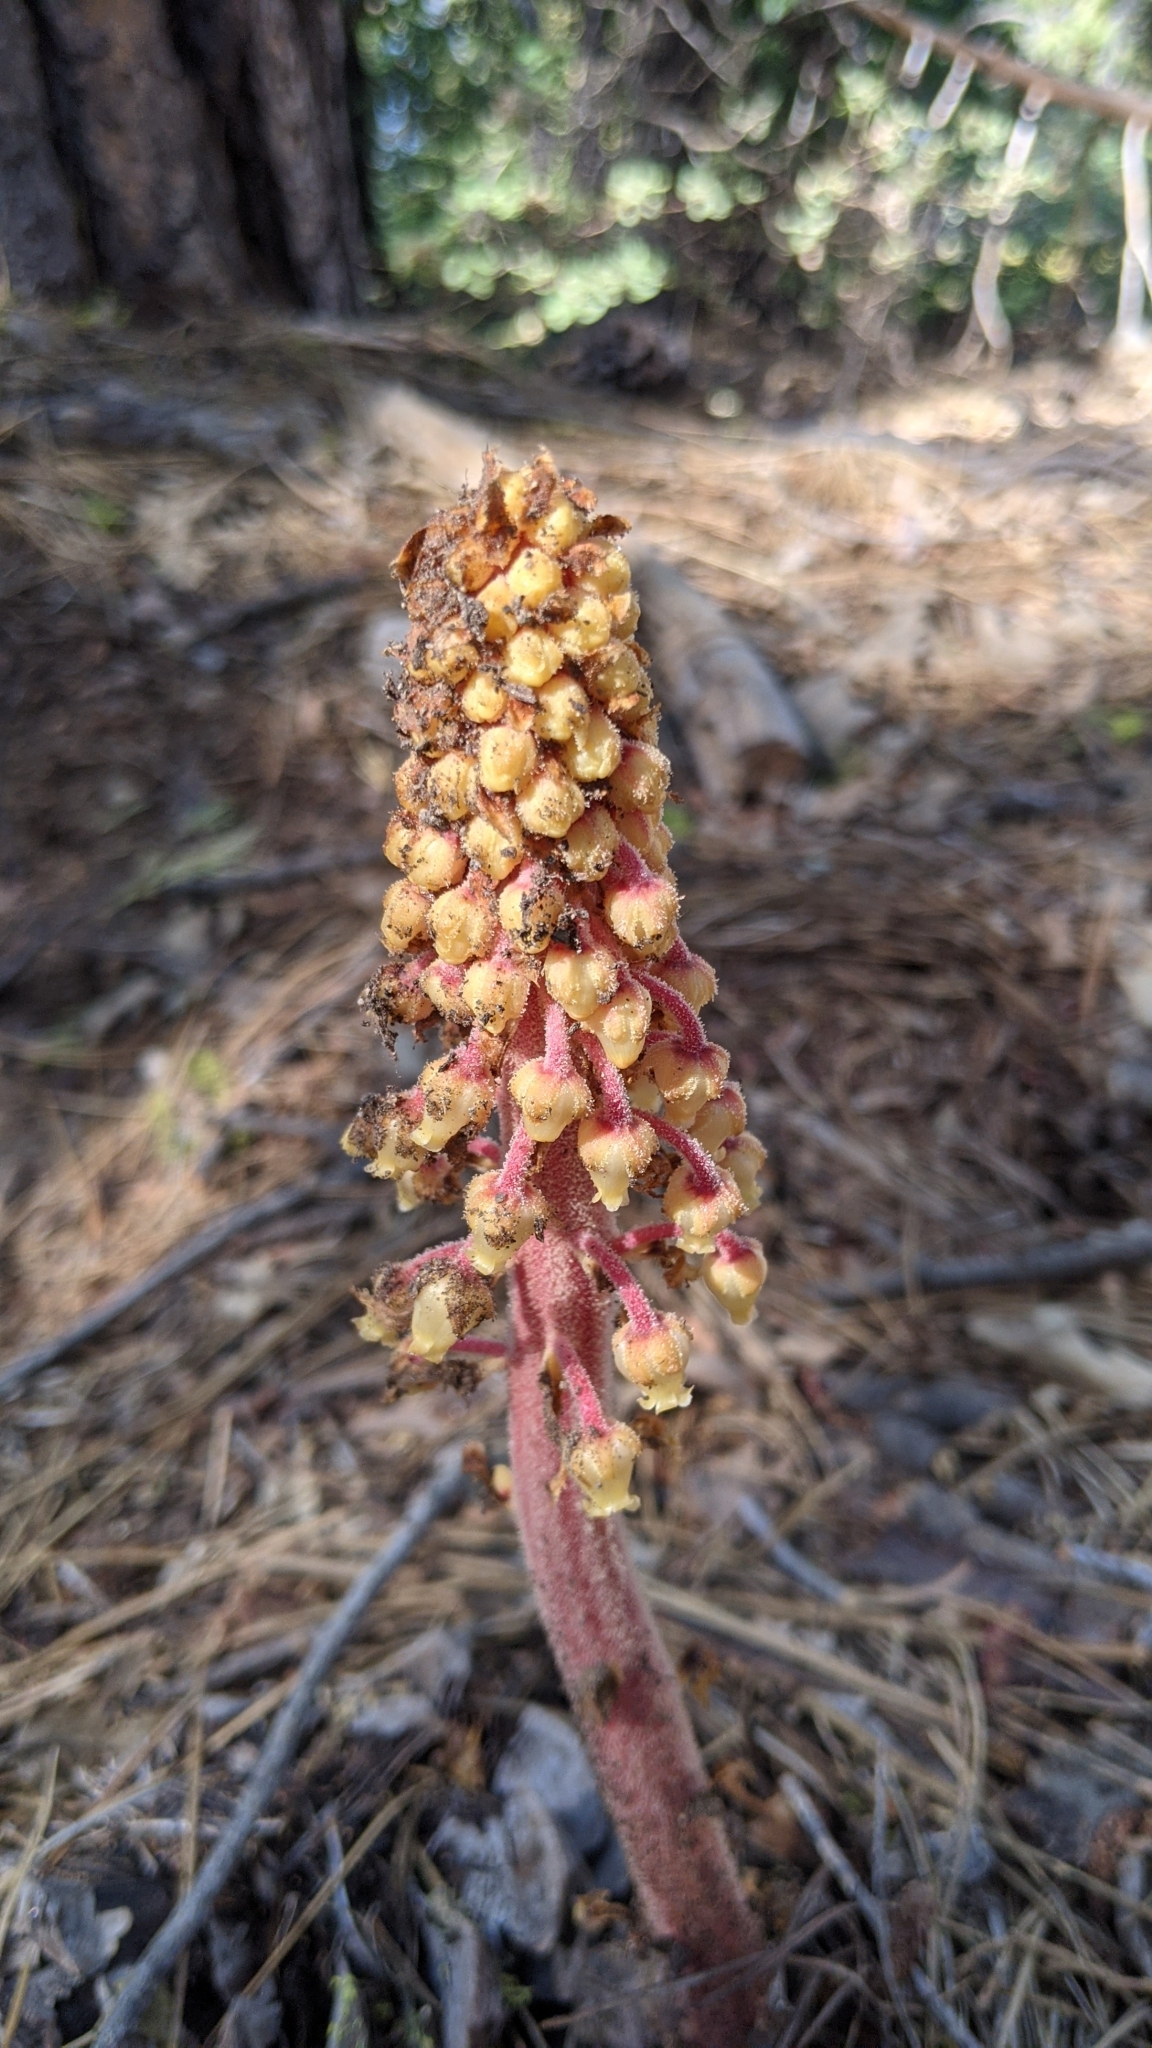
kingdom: Plantae
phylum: Tracheophyta
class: Magnoliopsida
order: Ericales
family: Ericaceae
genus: Pterospora
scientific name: Pterospora andromedea
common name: Giant bird's-nest
